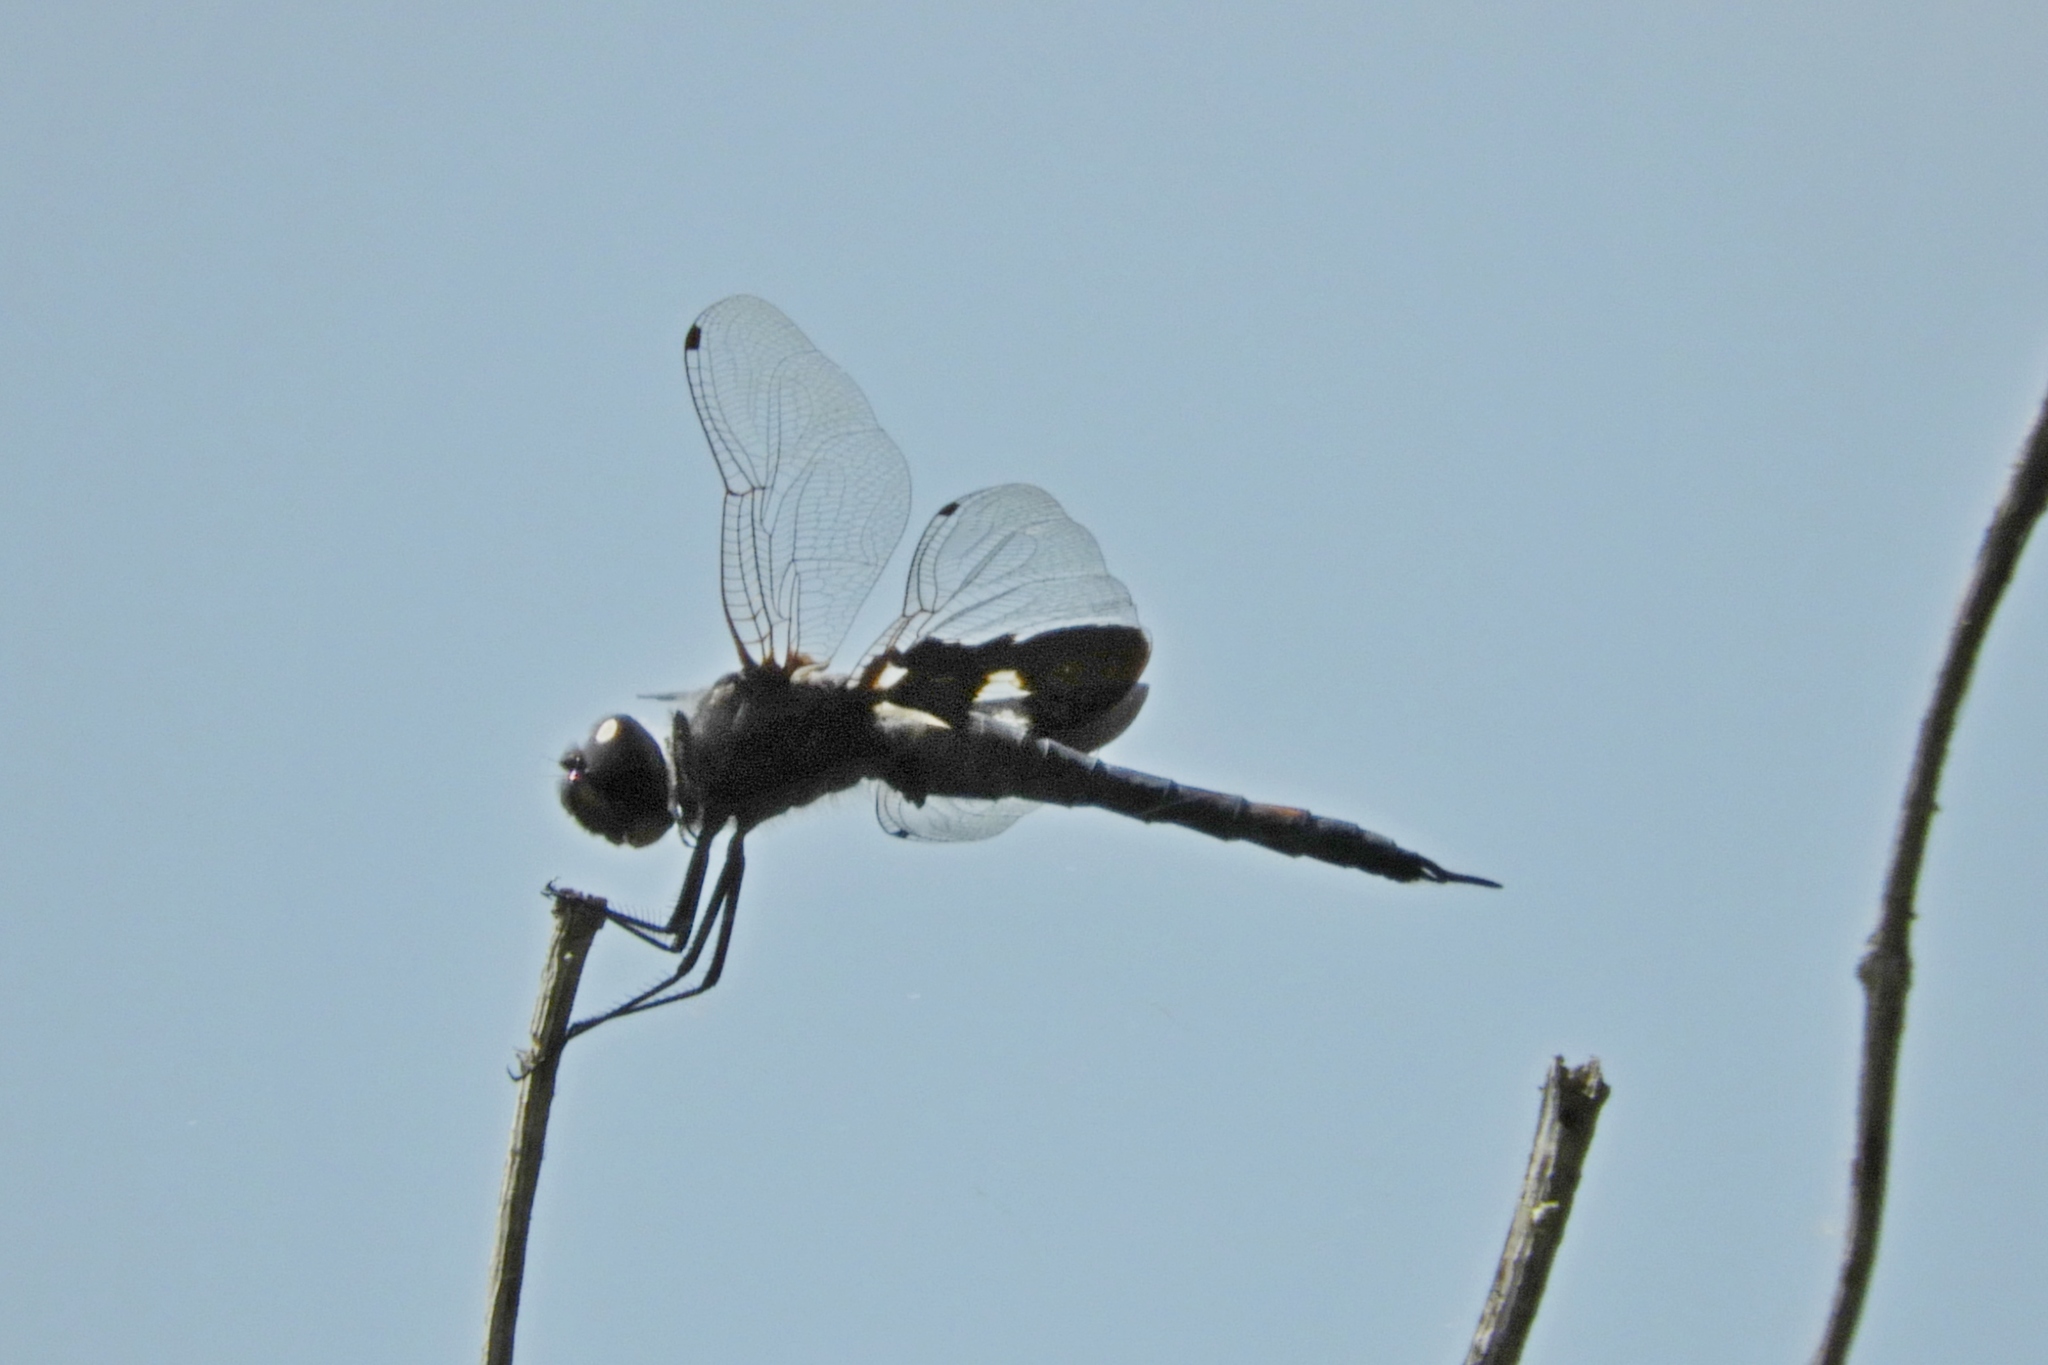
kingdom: Animalia
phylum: Arthropoda
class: Insecta
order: Odonata
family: Libellulidae
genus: Tramea
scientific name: Tramea lacerata
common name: Black saddlebags
